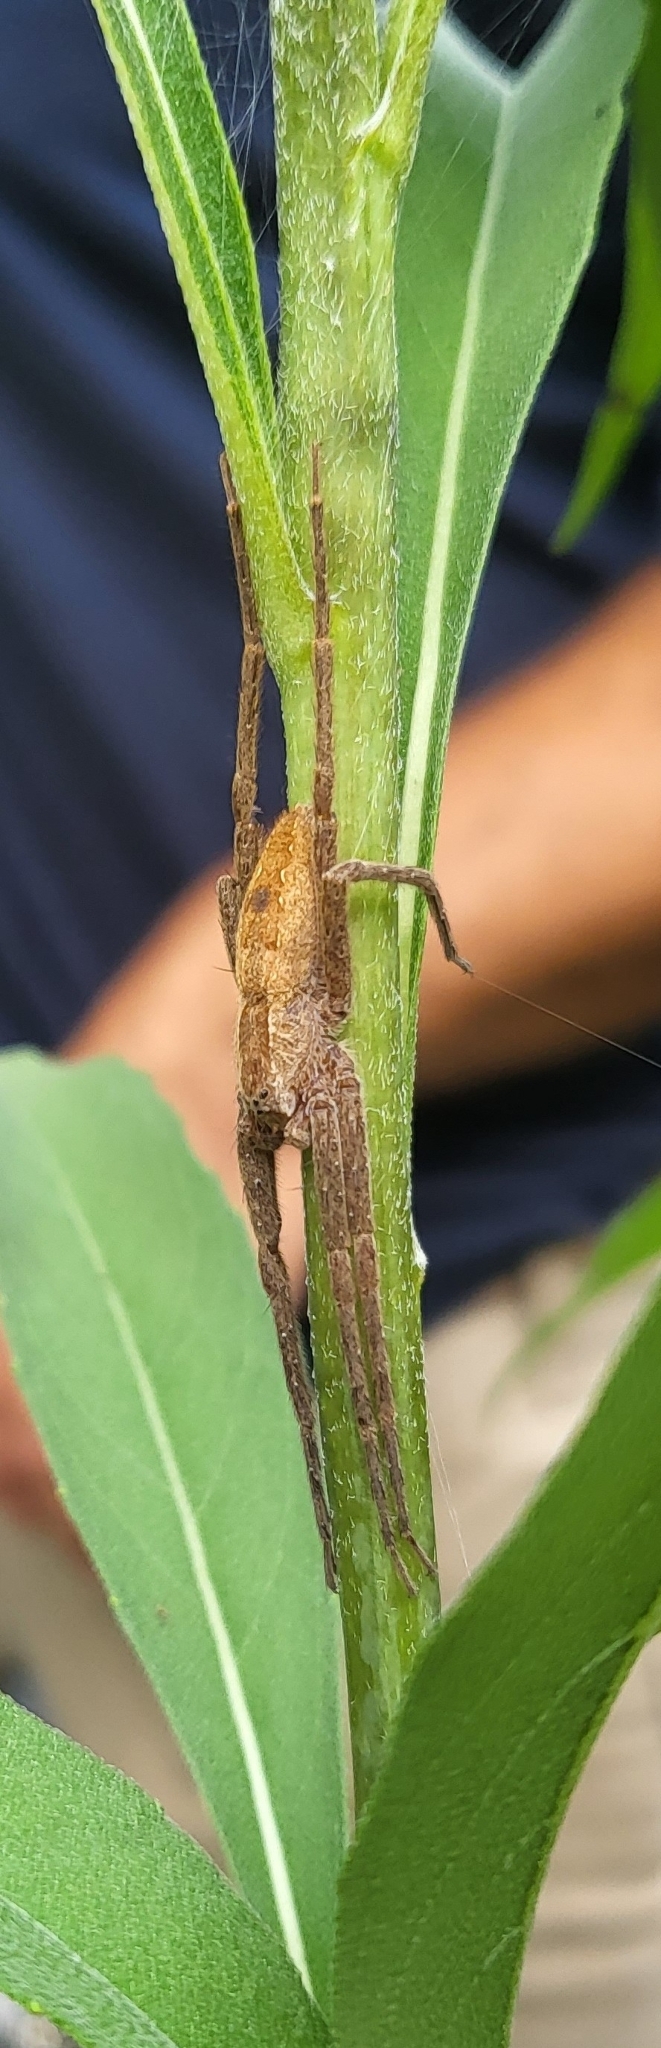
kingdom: Animalia
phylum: Arthropoda
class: Arachnida
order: Araneae
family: Pisauridae
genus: Pisaurina
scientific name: Pisaurina mira
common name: American nursery web spider
